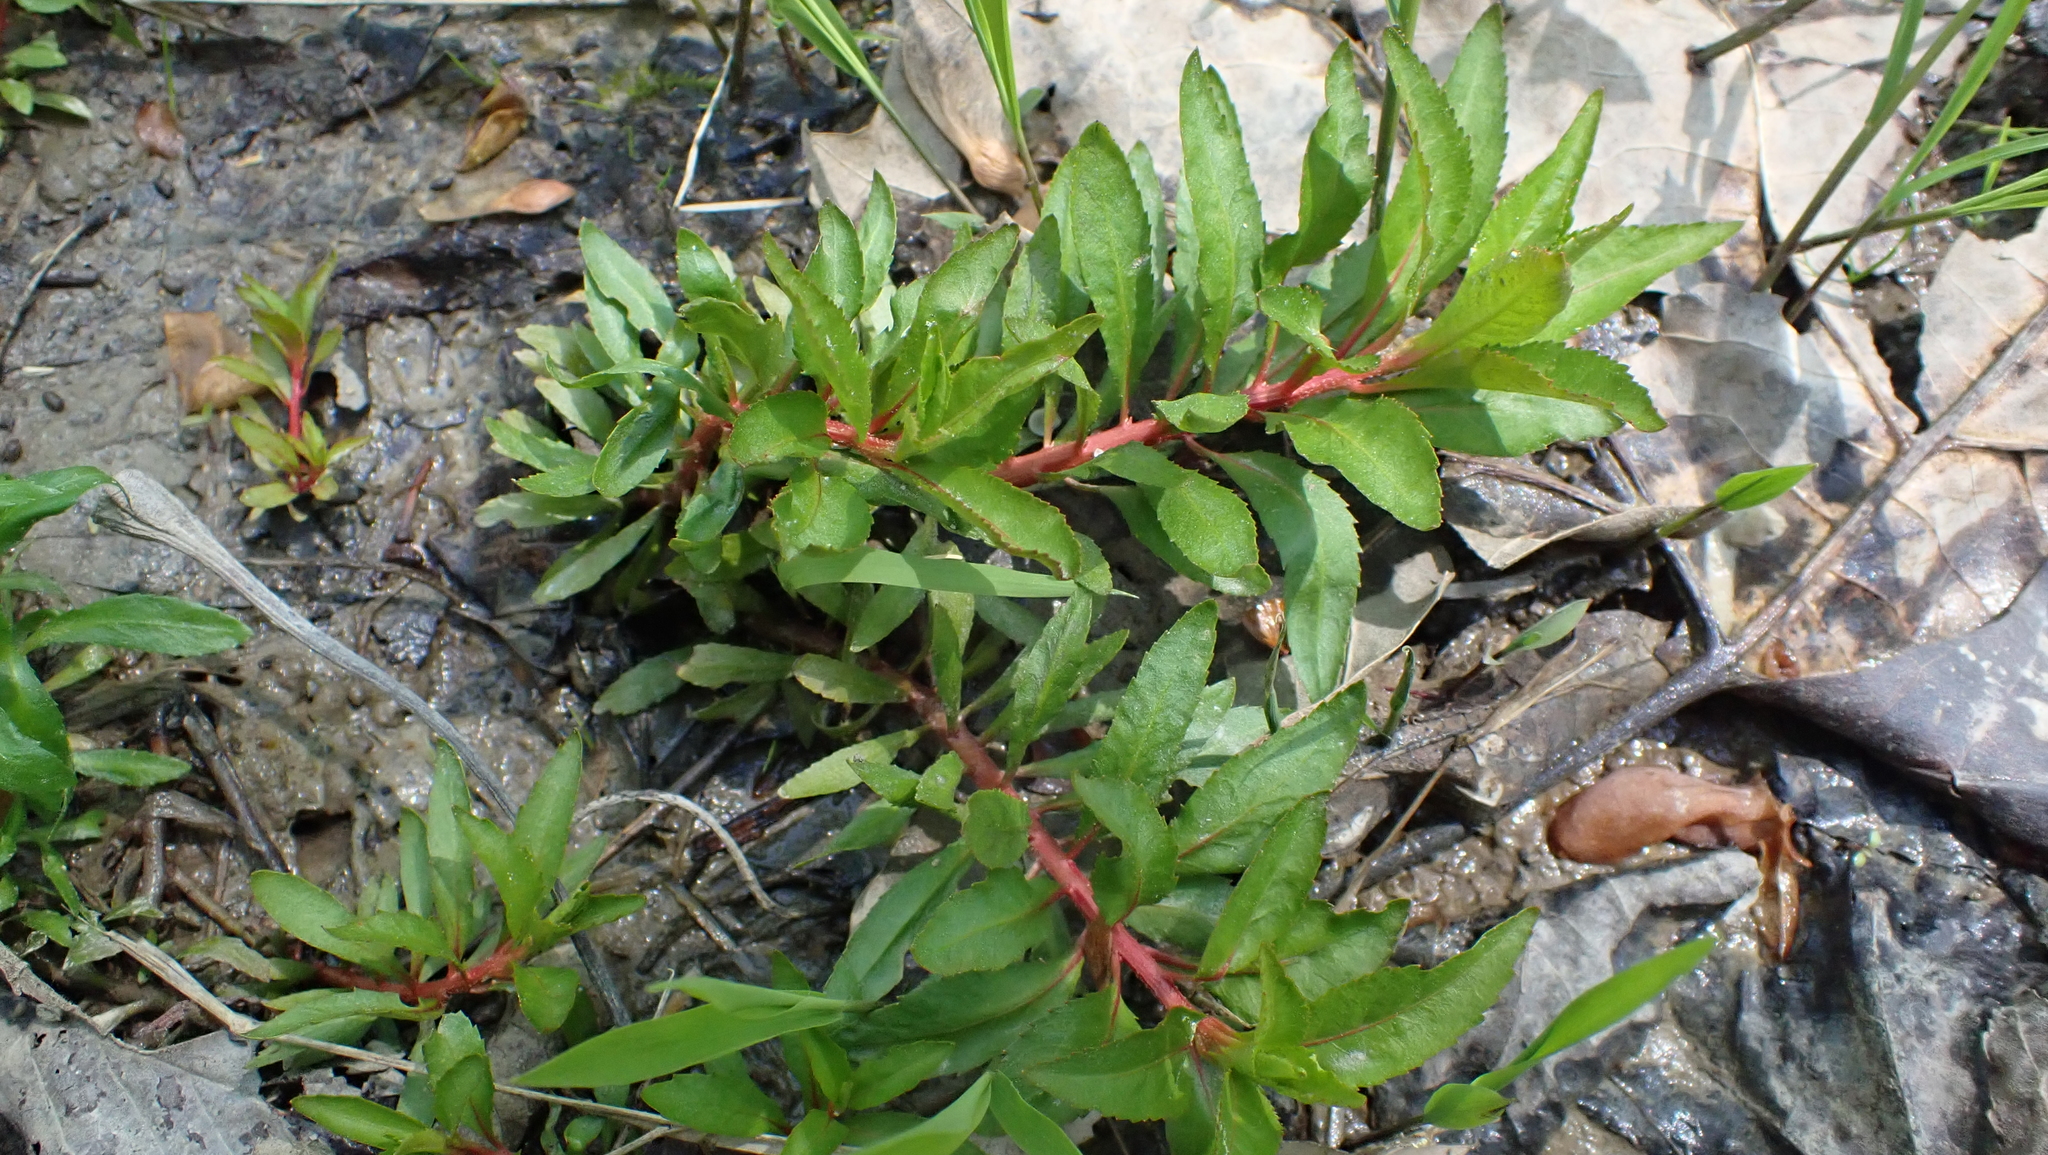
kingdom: Plantae
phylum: Tracheophyta
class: Magnoliopsida
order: Saxifragales
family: Haloragaceae
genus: Proserpinaca
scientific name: Proserpinaca palustris
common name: Marsh mermaidweed
